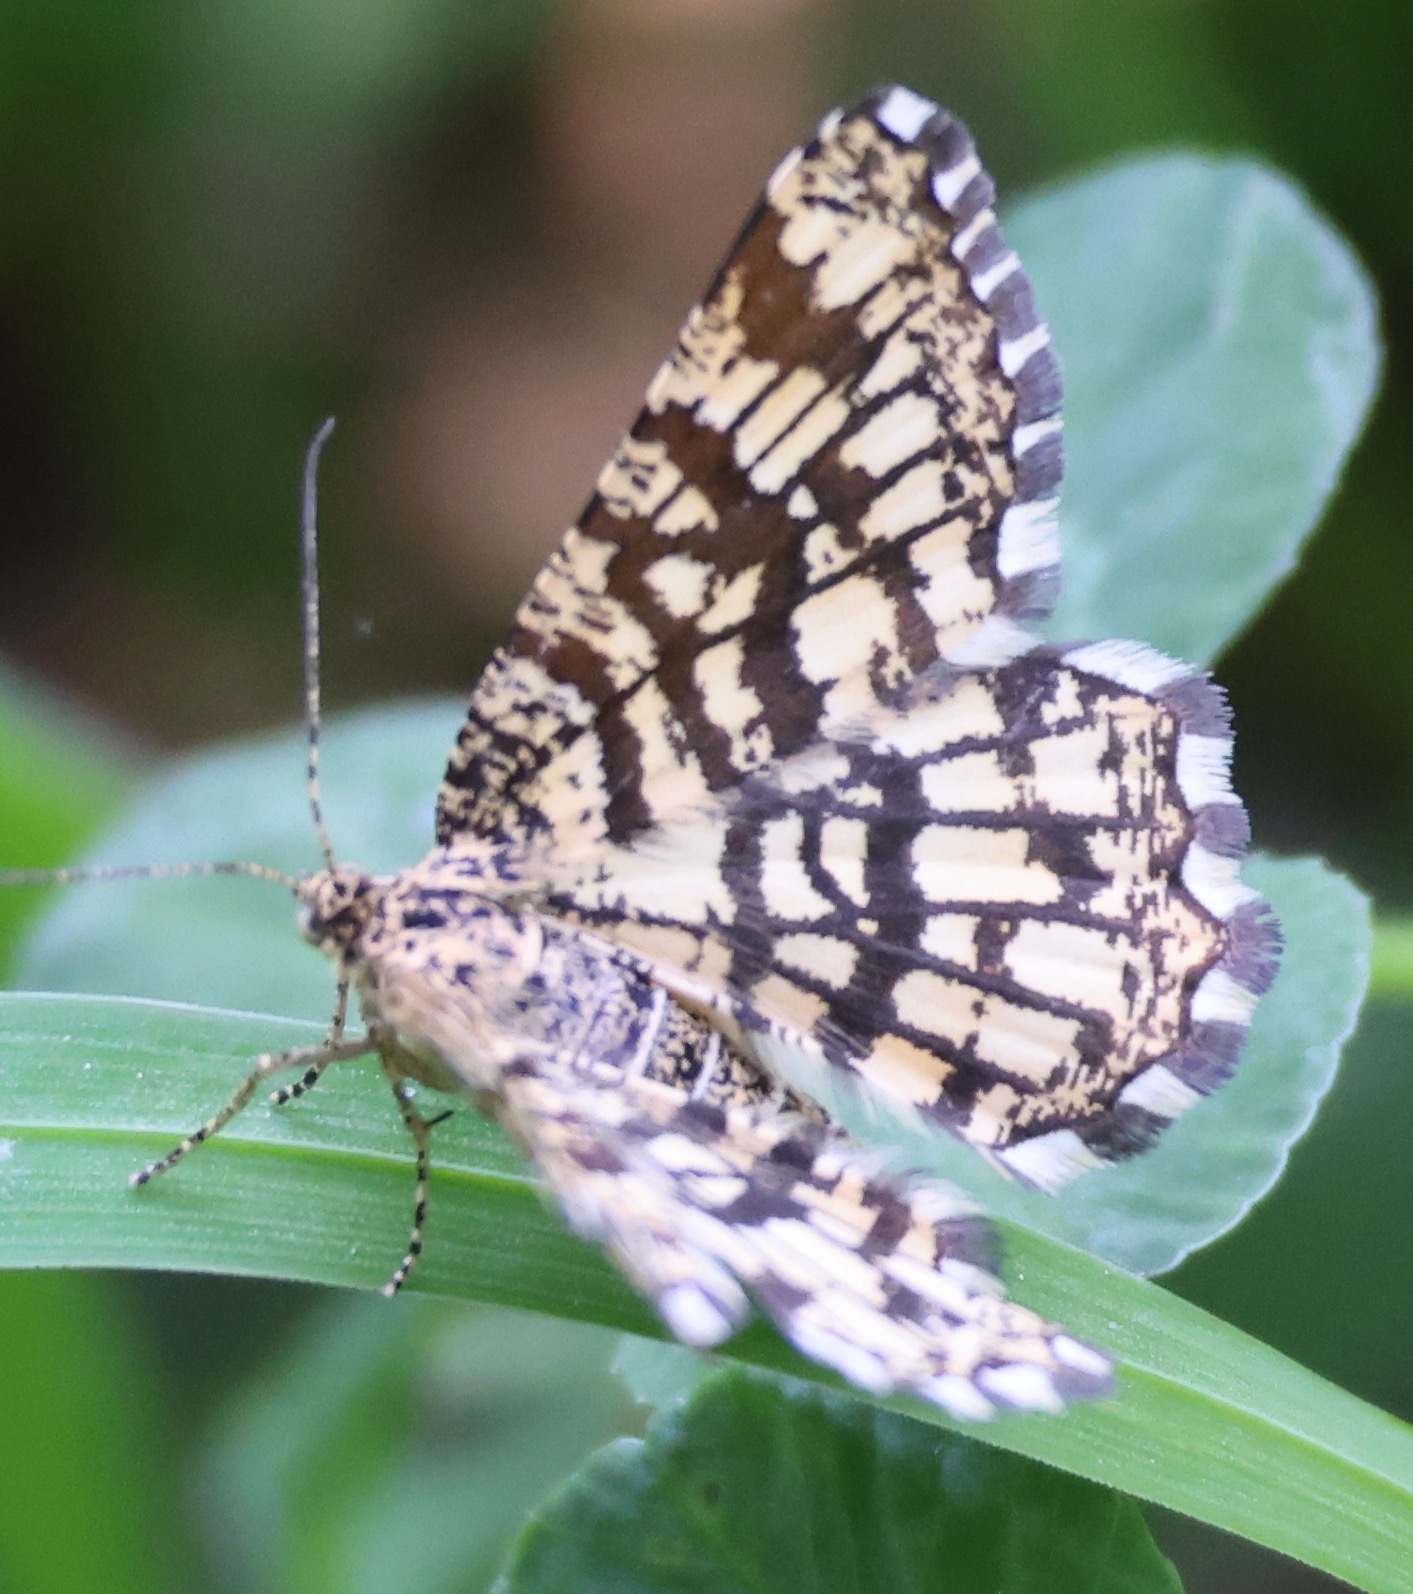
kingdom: Animalia
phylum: Arthropoda
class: Insecta
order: Lepidoptera
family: Geometridae
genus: Chiasmia
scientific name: Chiasmia clathrata
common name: Latticed heath
